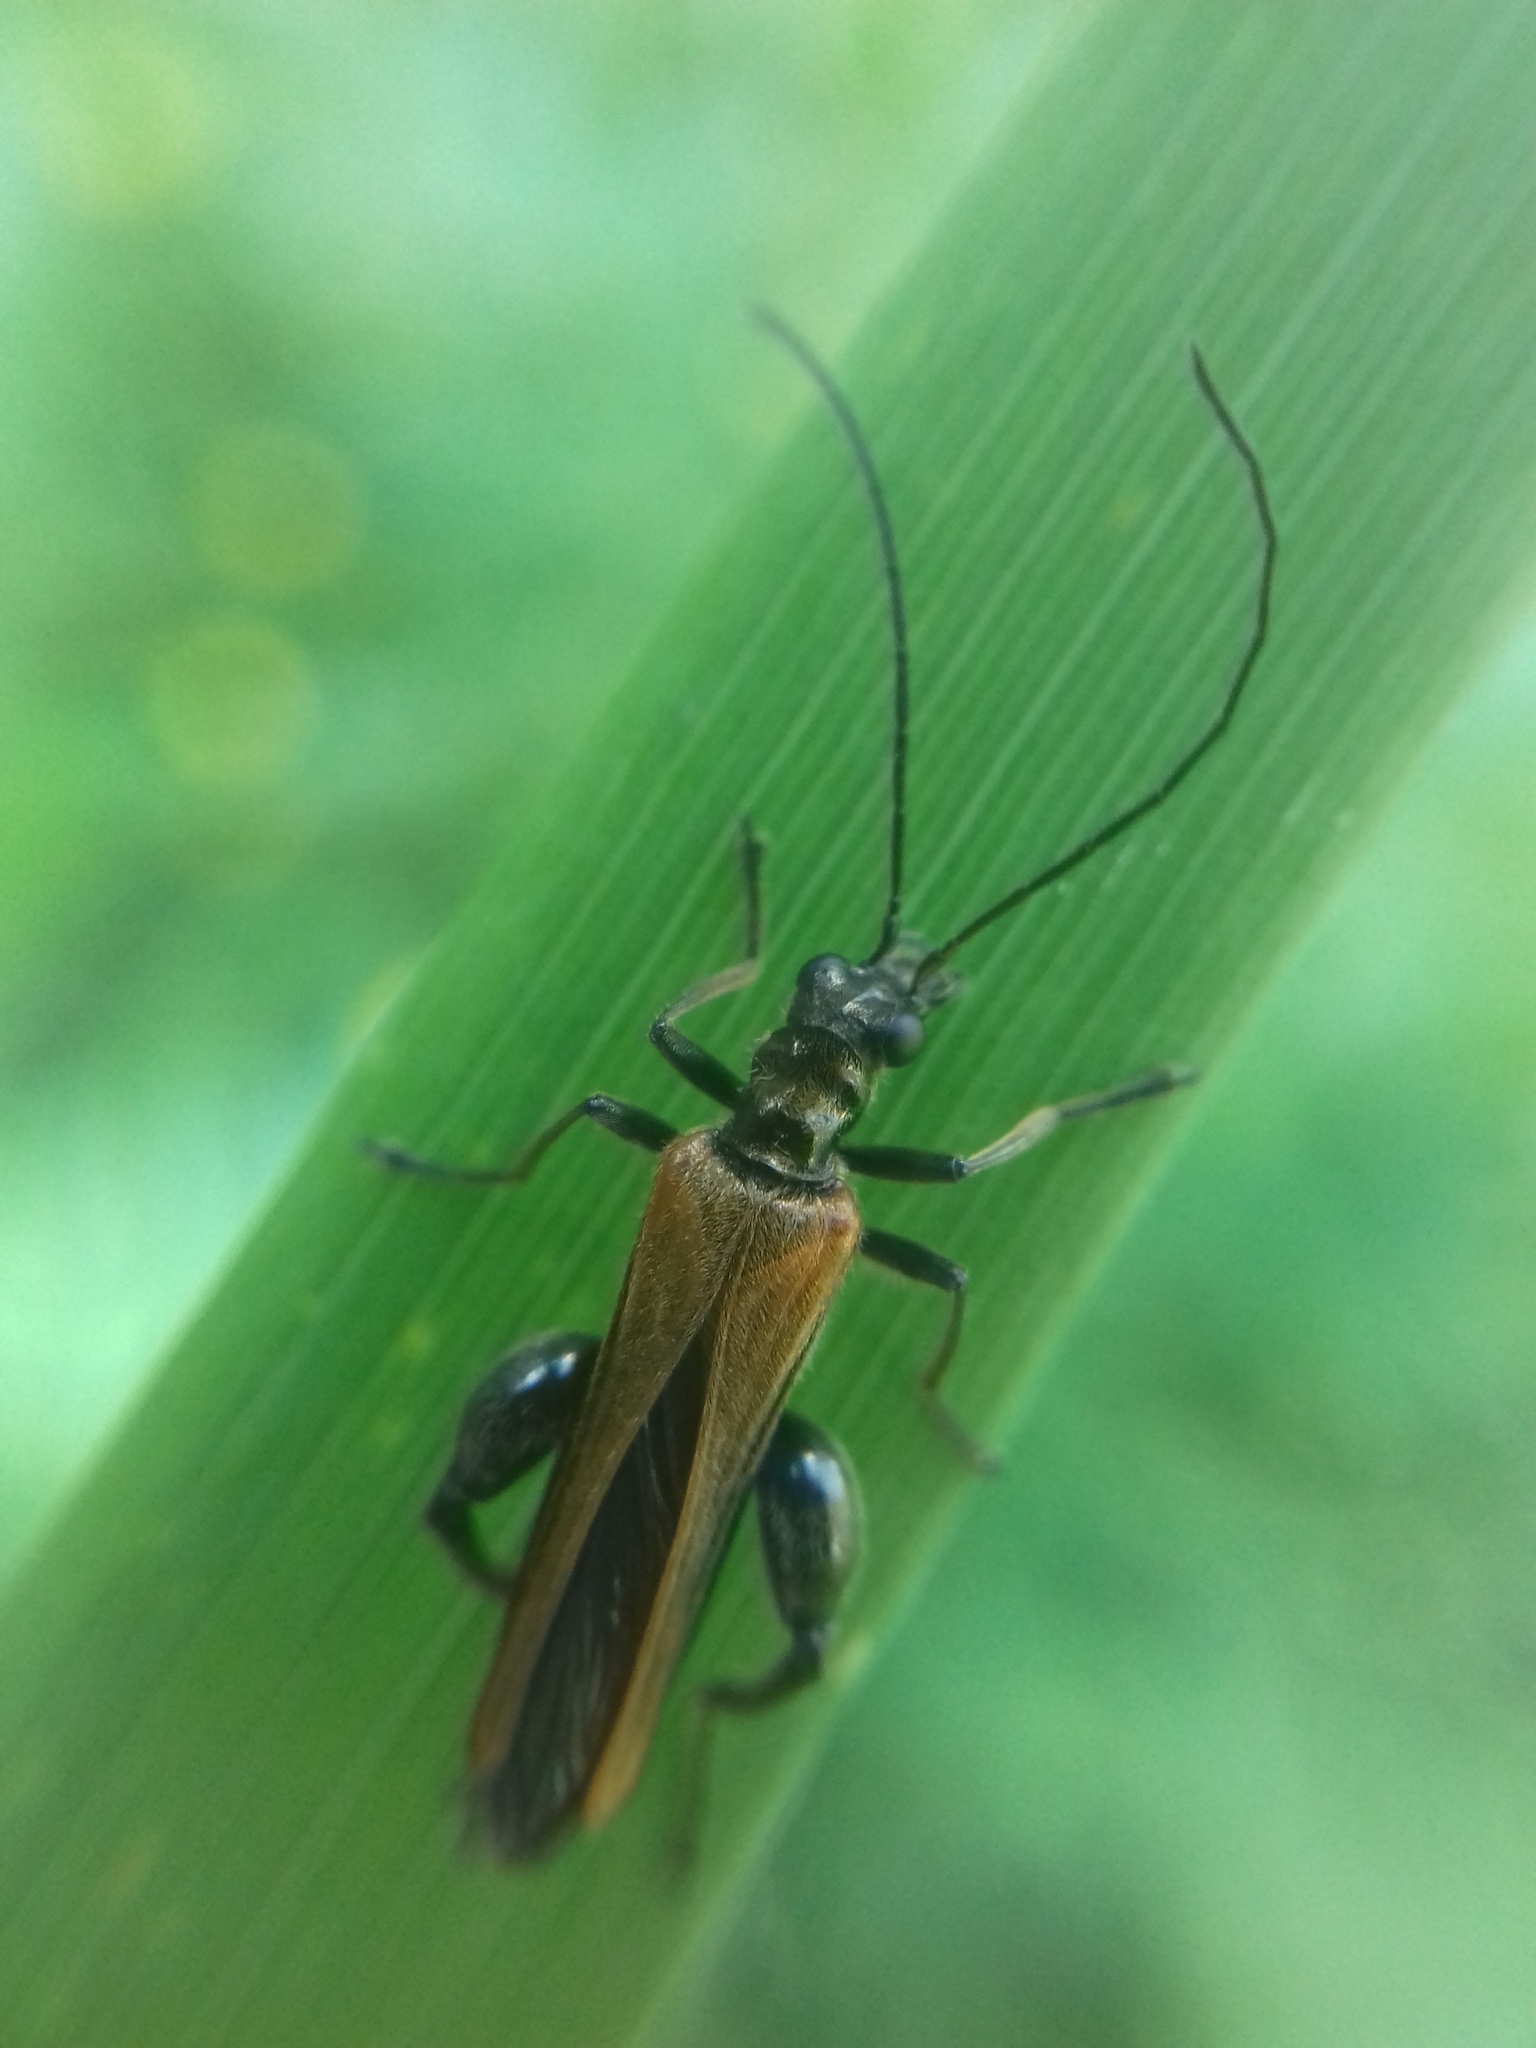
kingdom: Animalia
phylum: Arthropoda
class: Insecta
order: Coleoptera
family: Oedemeridae
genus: Oedemera
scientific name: Oedemera femorata
